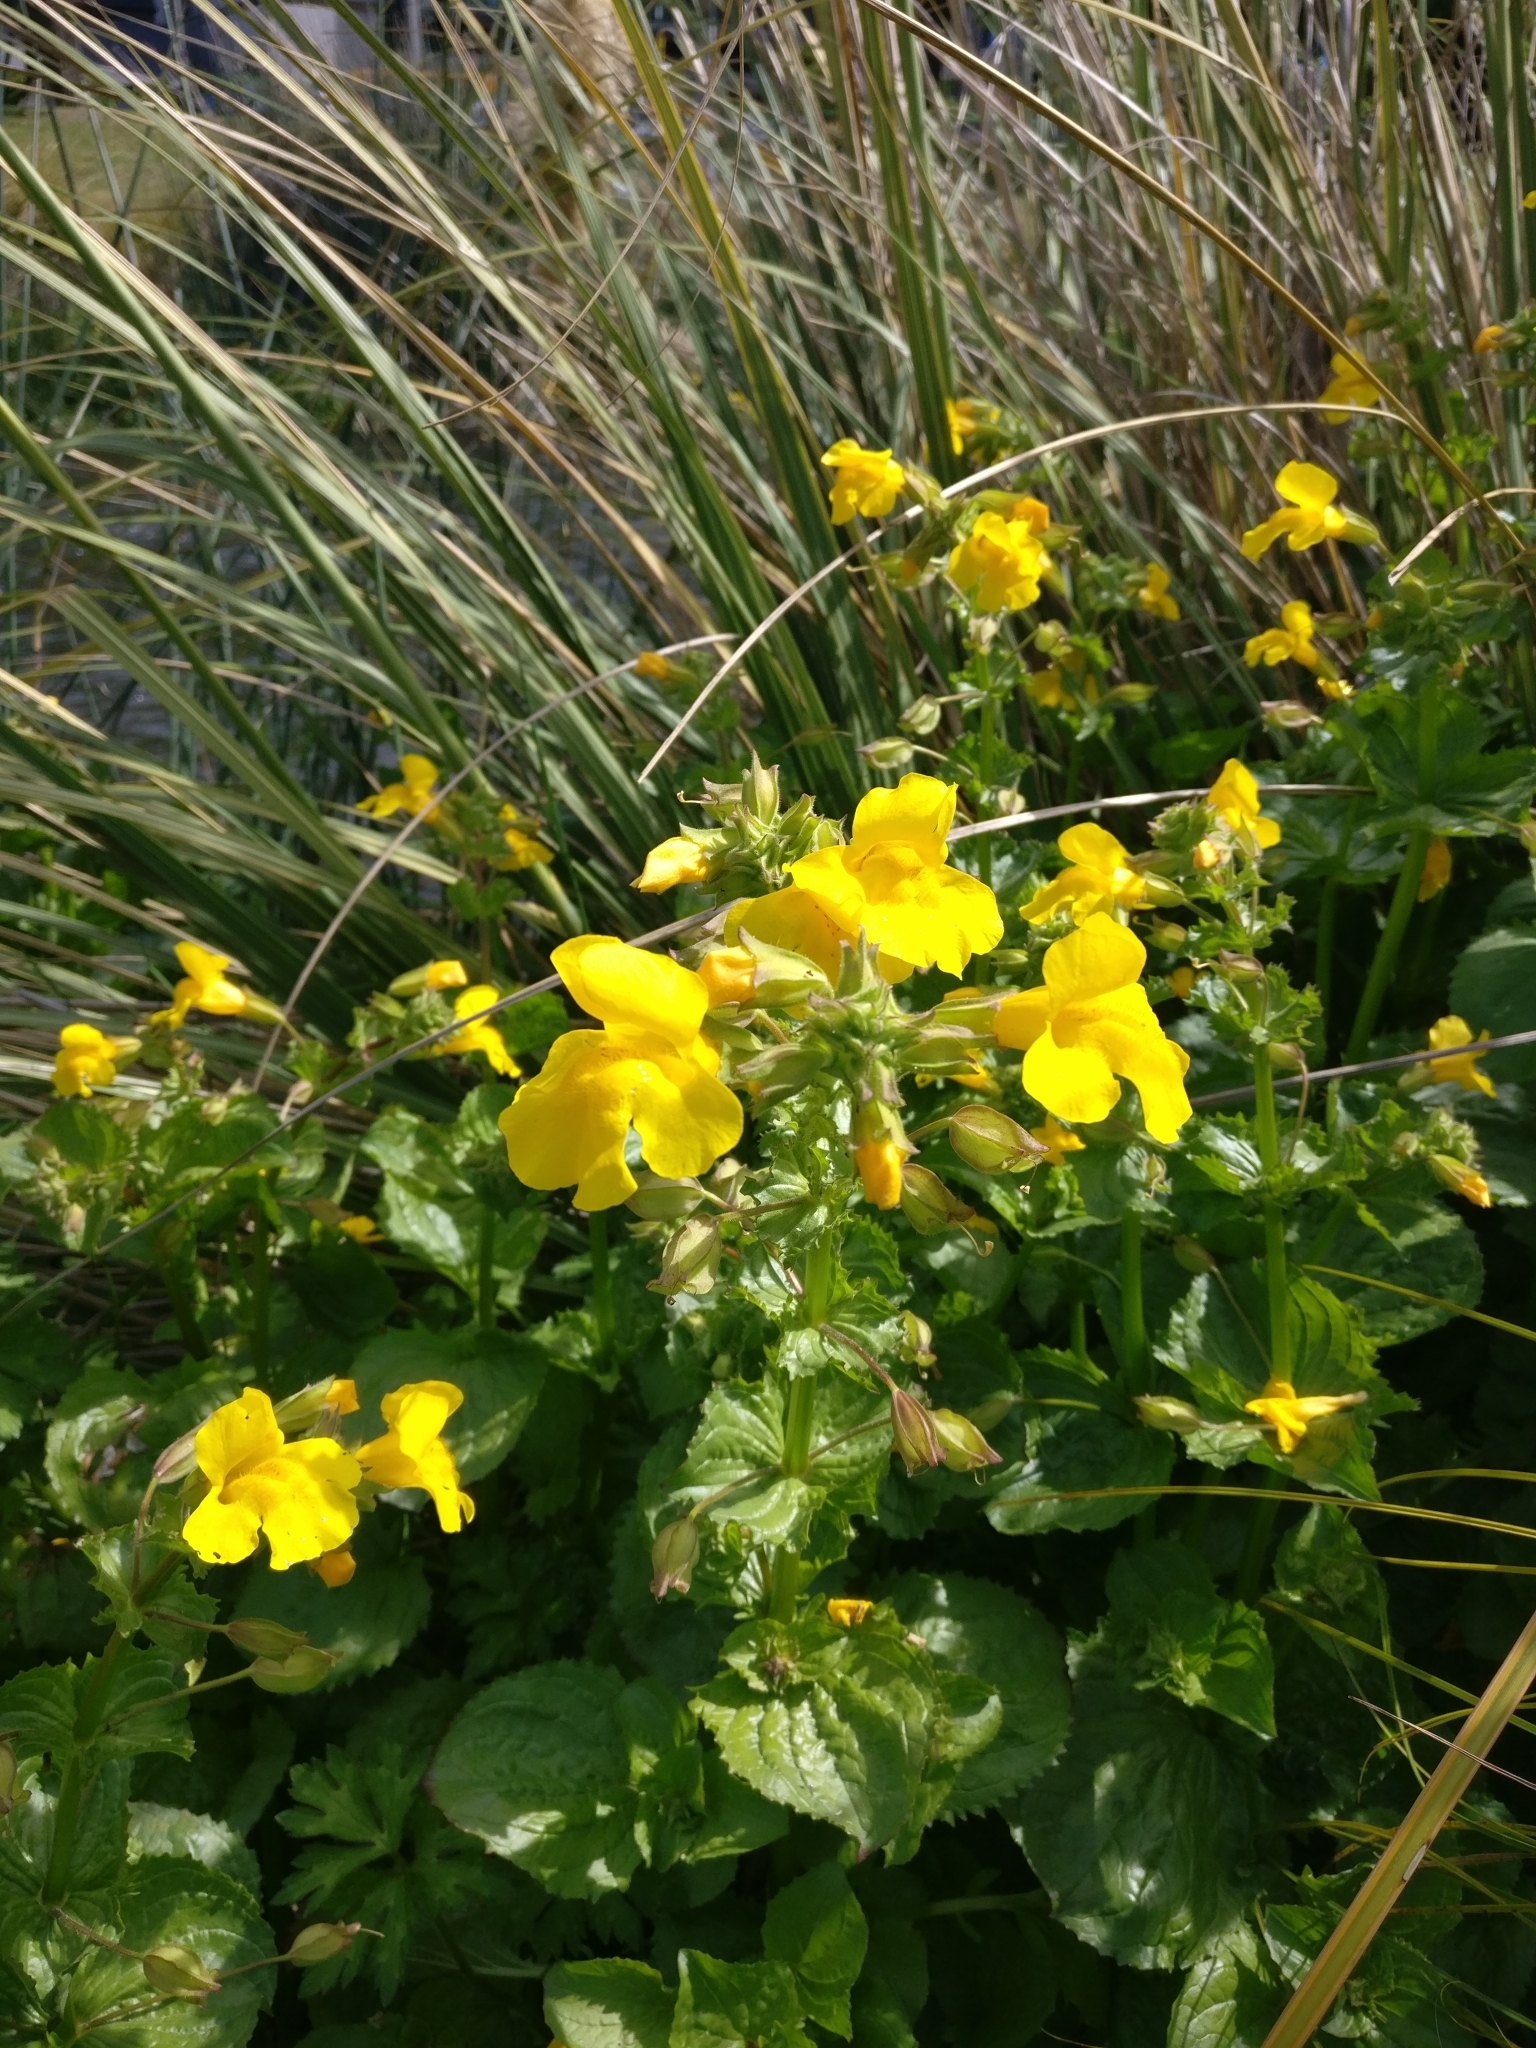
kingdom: Plantae
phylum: Tracheophyta
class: Magnoliopsida
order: Lamiales
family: Phrymaceae
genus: Erythranthe
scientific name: Erythranthe guttata
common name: Monkeyflower
